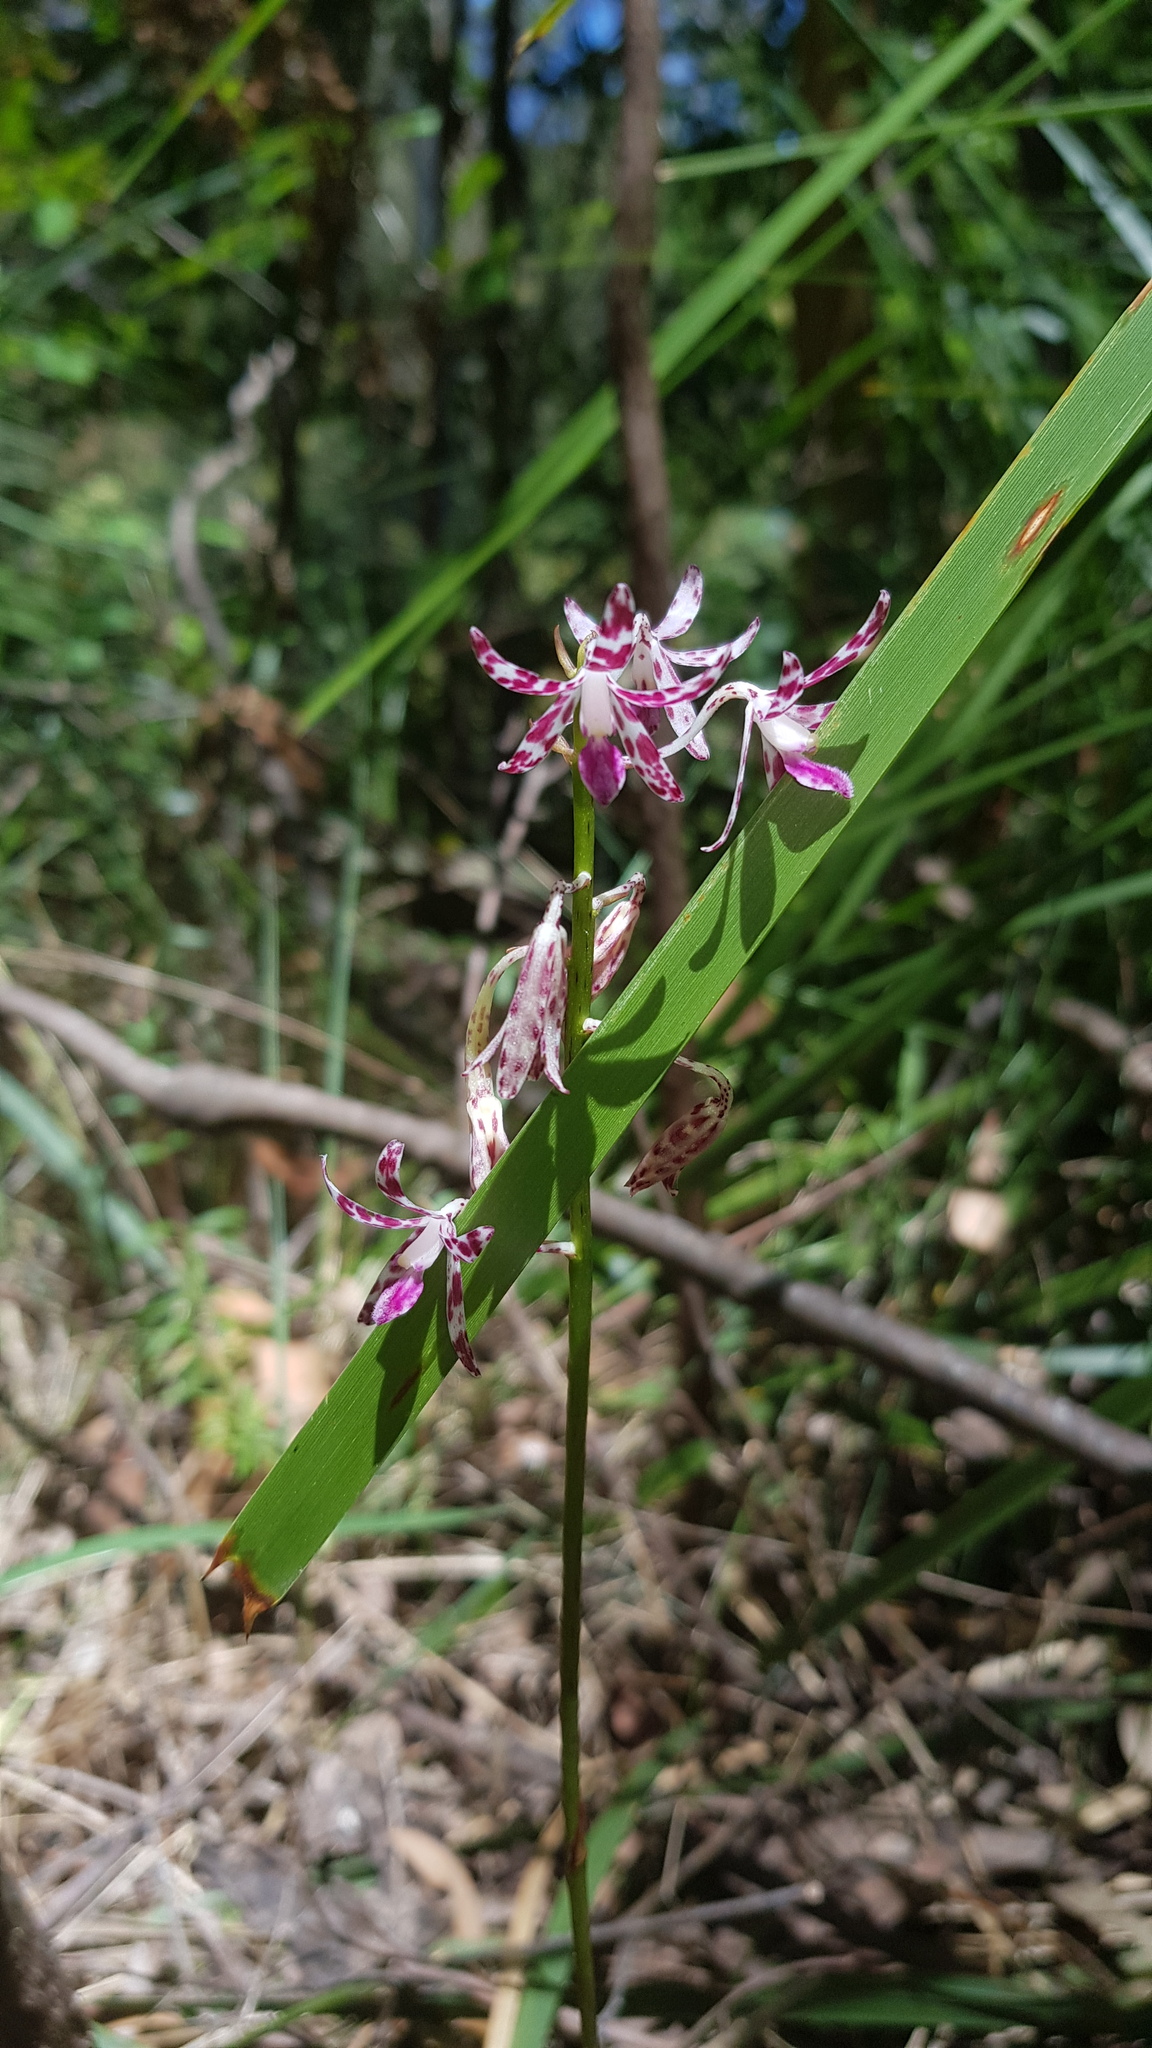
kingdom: Plantae
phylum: Tracheophyta
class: Liliopsida
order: Asparagales
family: Orchidaceae
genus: Dipodium
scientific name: Dipodium variegatum
